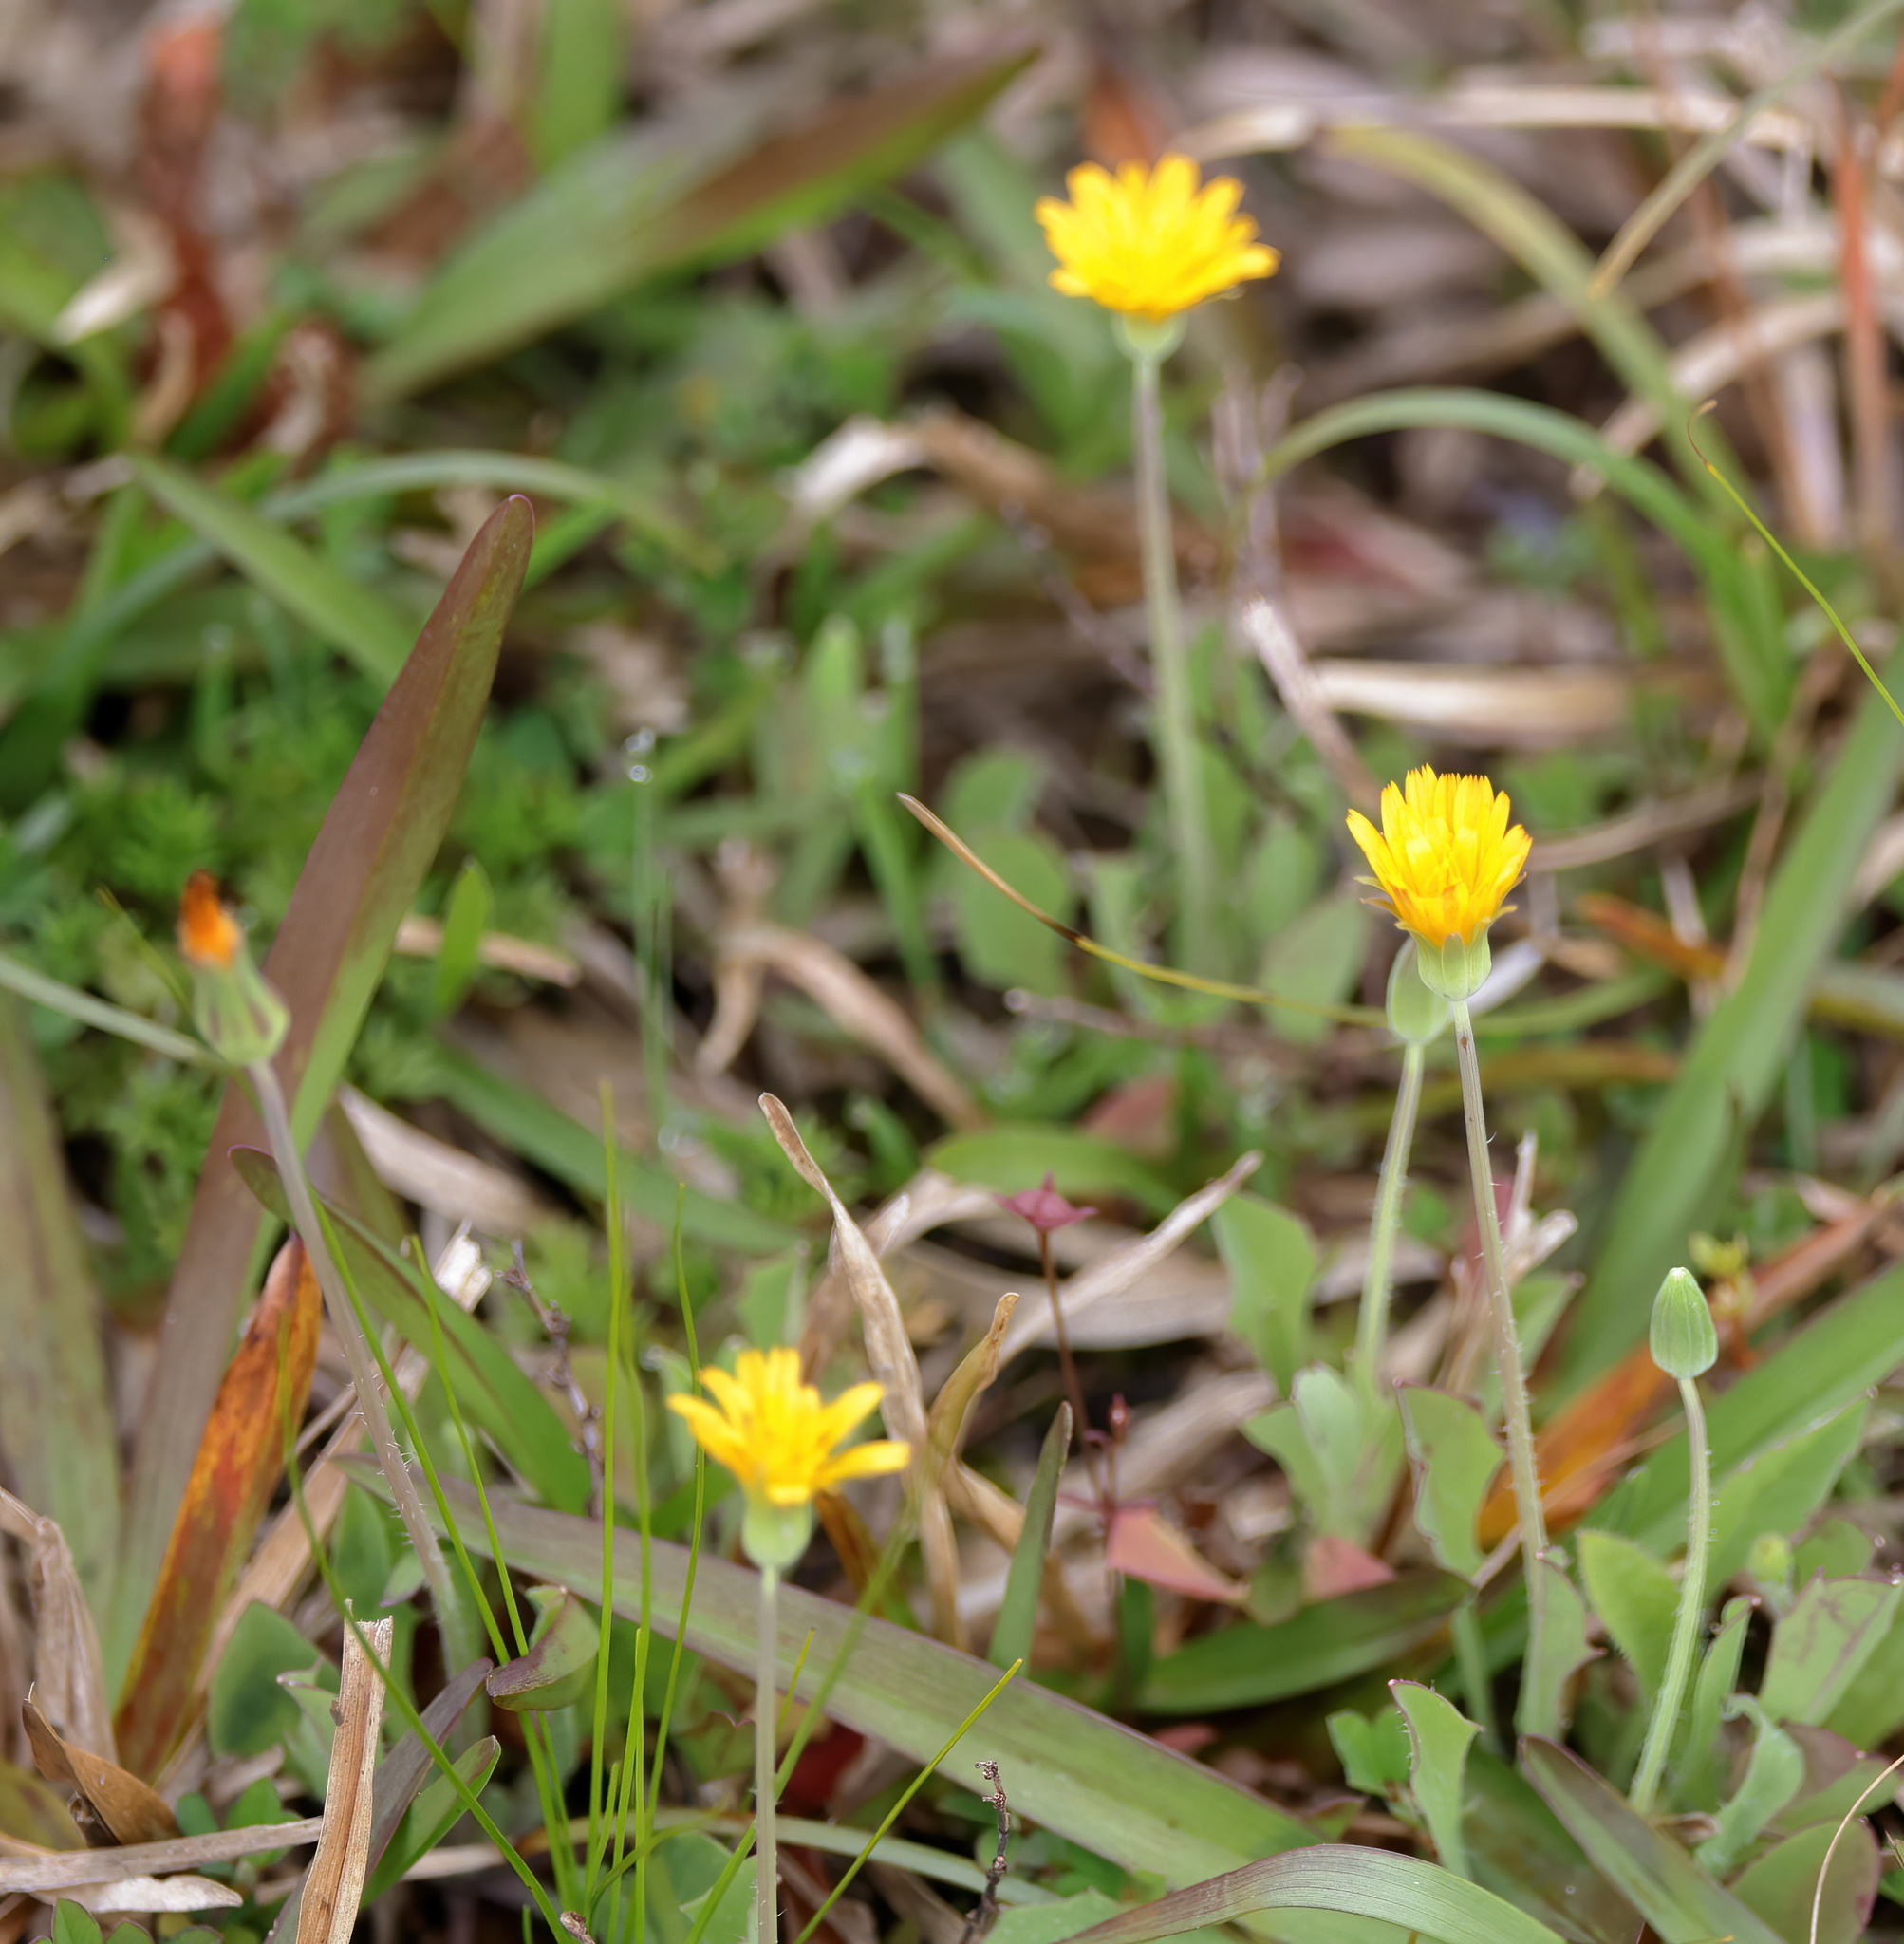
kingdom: Plantae
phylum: Tracheophyta
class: Magnoliopsida
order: Asterales
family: Asteraceae
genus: Krigia
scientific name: Krigia virginica
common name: Virginia dwarf-dandelion
